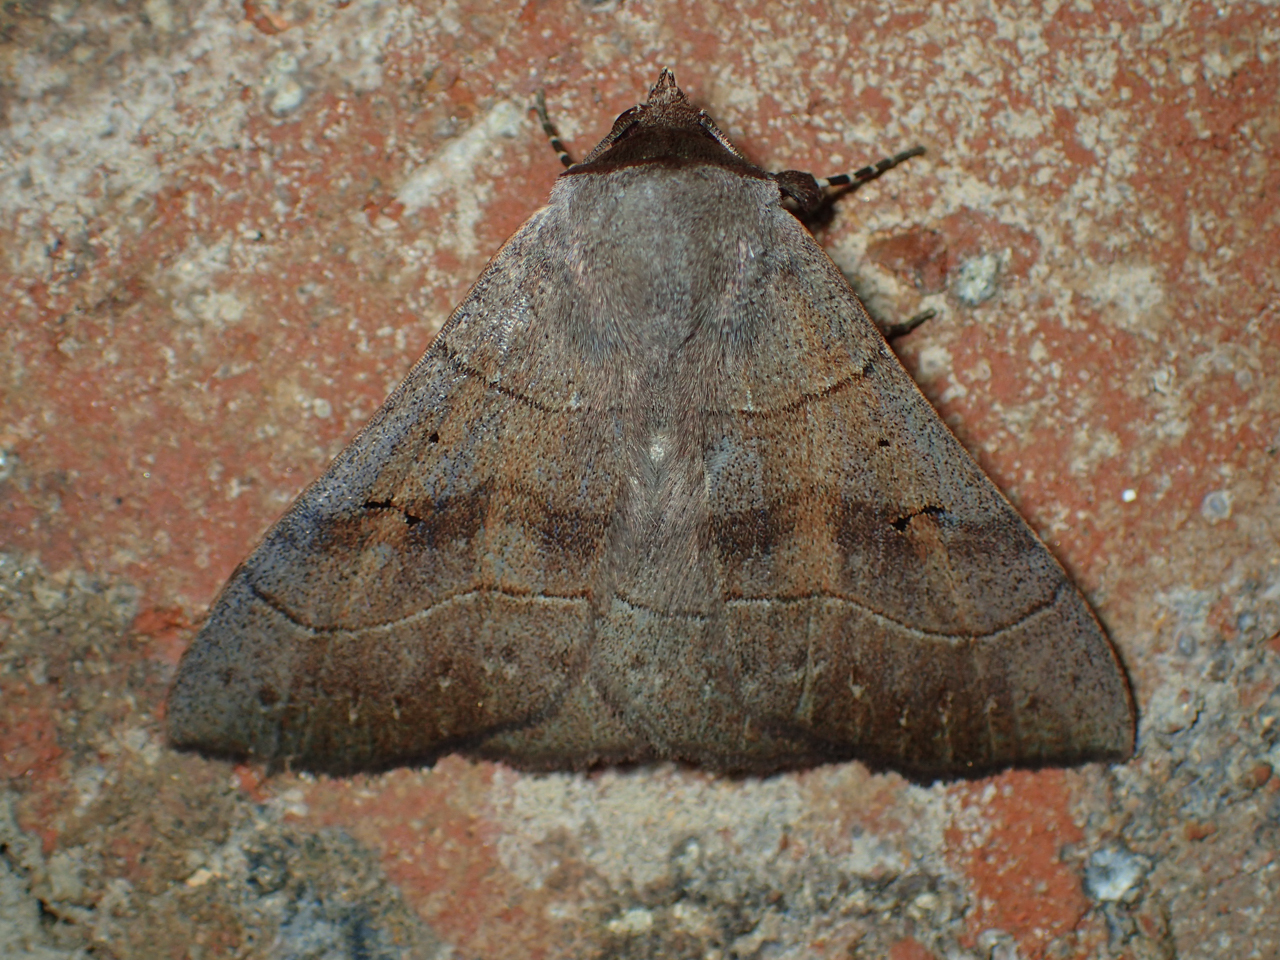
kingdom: Animalia
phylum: Arthropoda
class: Insecta
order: Lepidoptera
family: Erebidae
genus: Panopoda
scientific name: Panopoda carneicosta
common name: Brown panopoda moth
